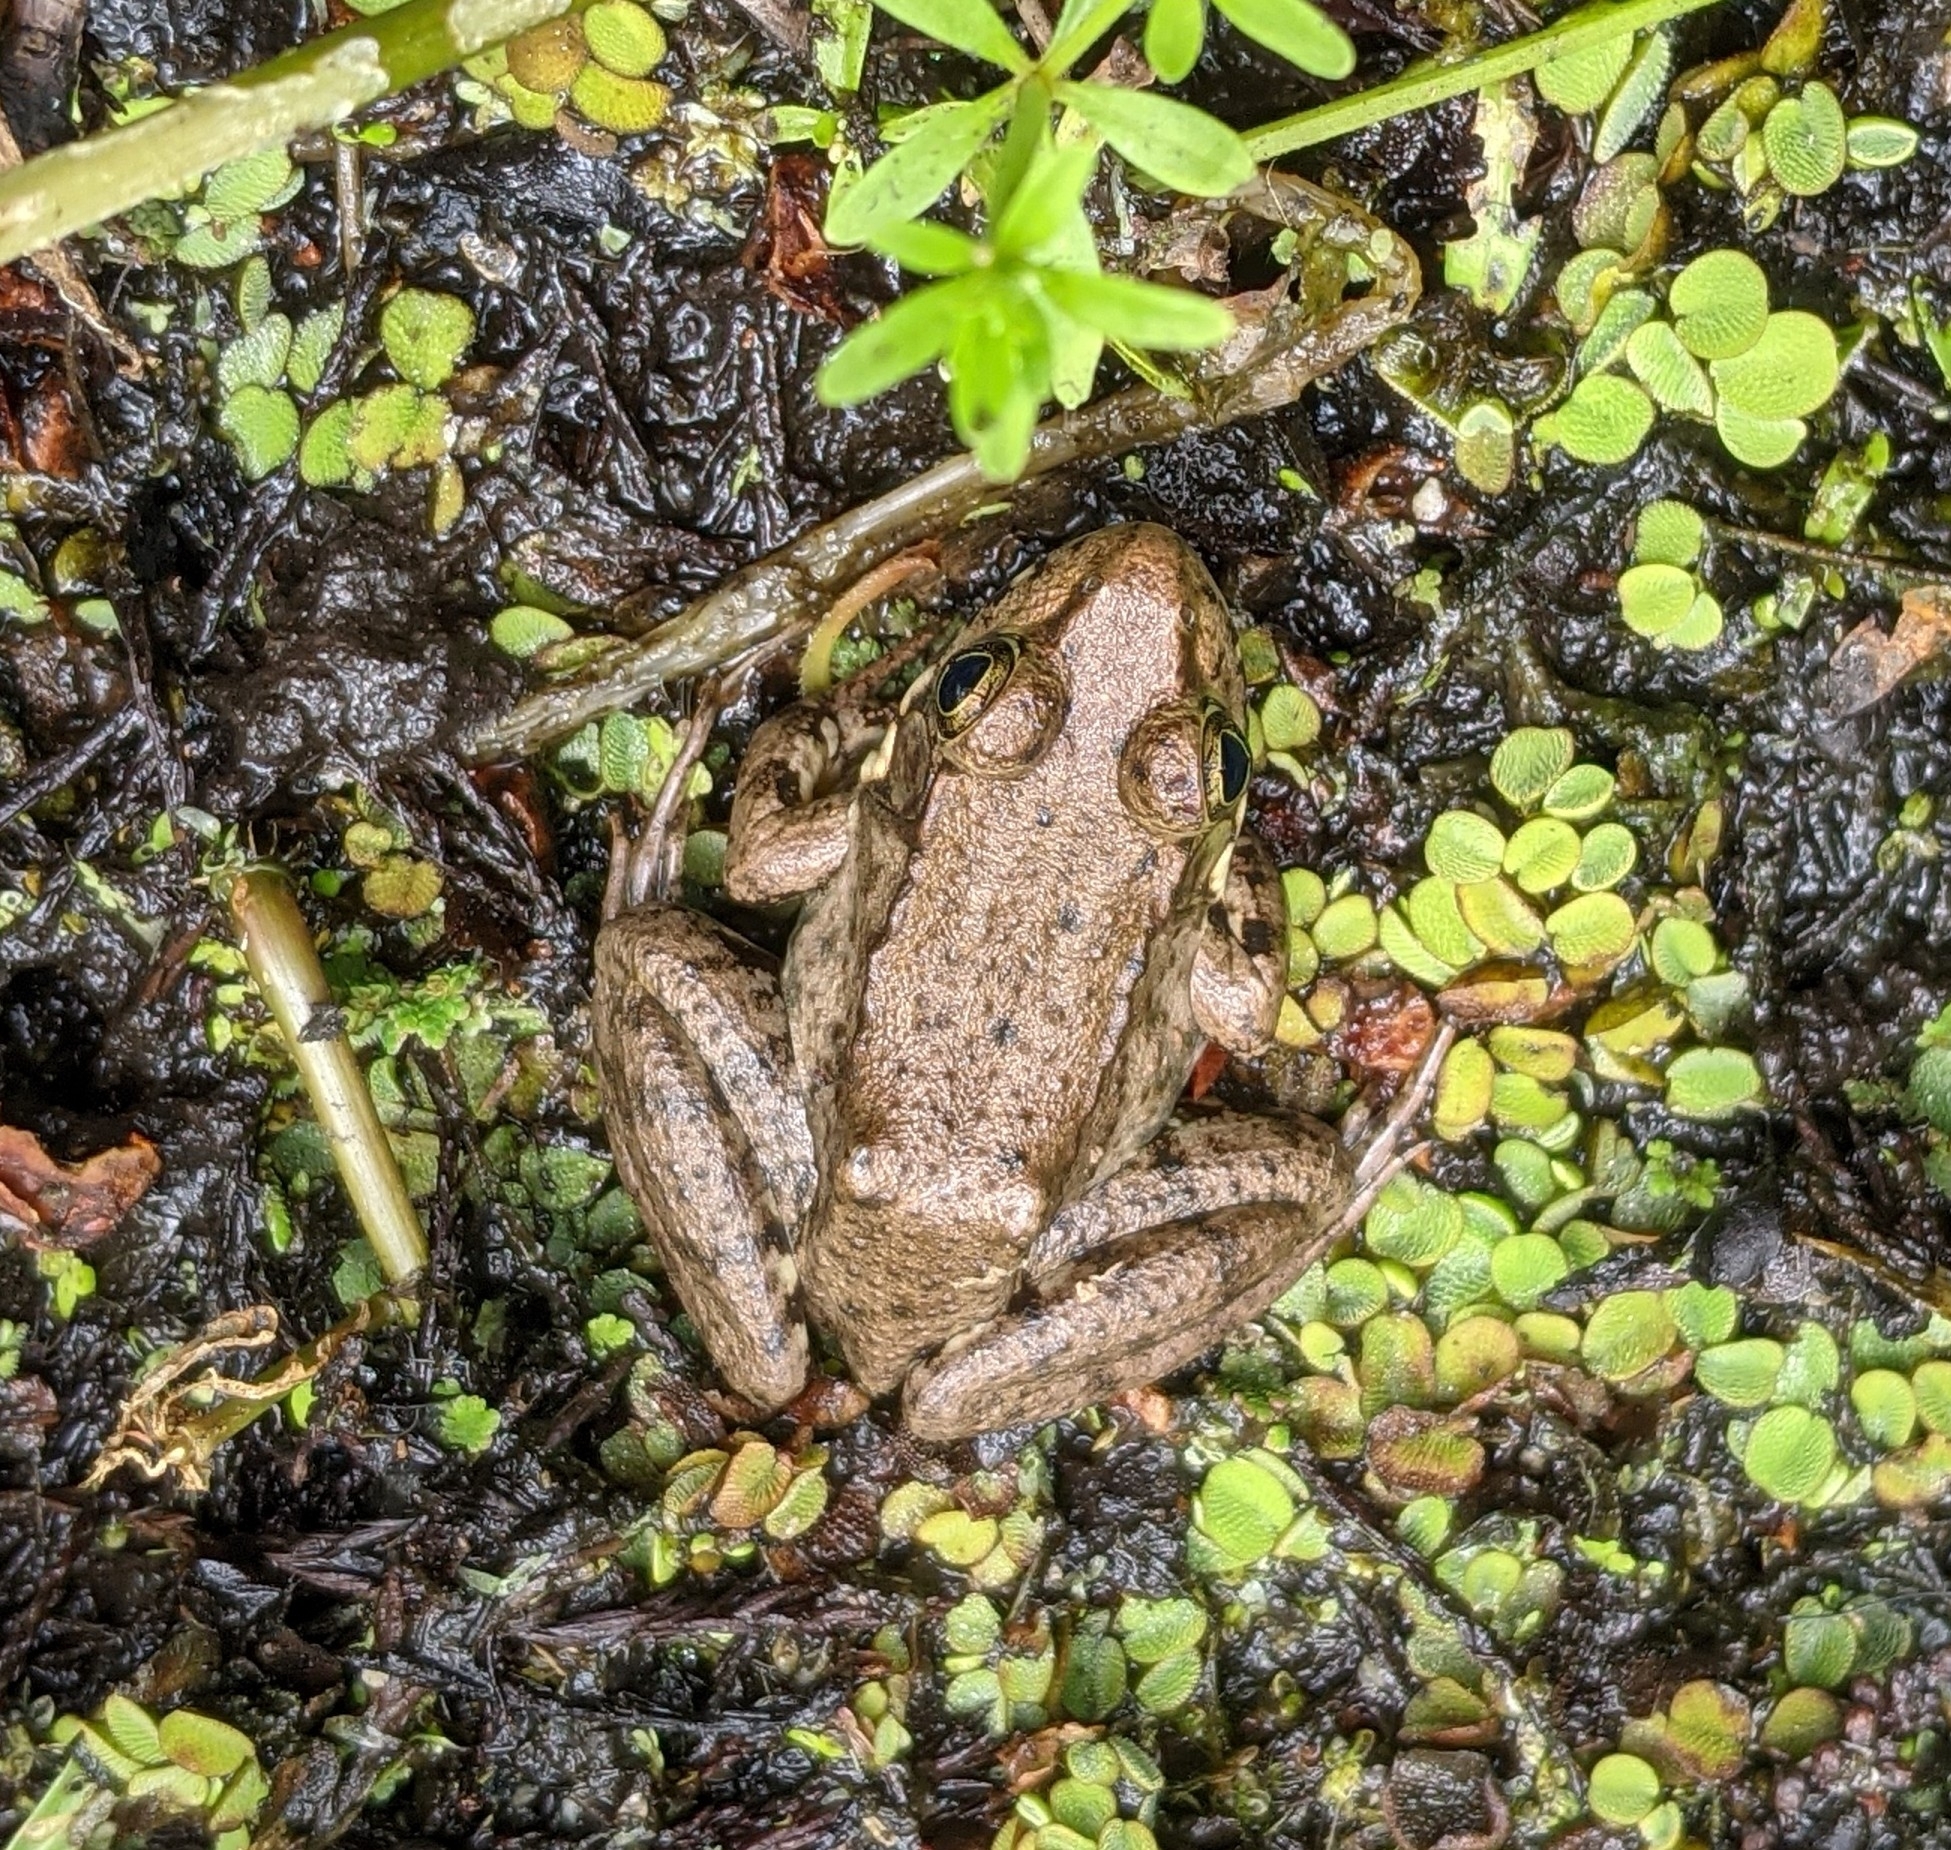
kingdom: Animalia
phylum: Chordata
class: Amphibia
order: Anura
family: Ranidae
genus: Lithobates
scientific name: Lithobates clamitans
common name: Green frog
